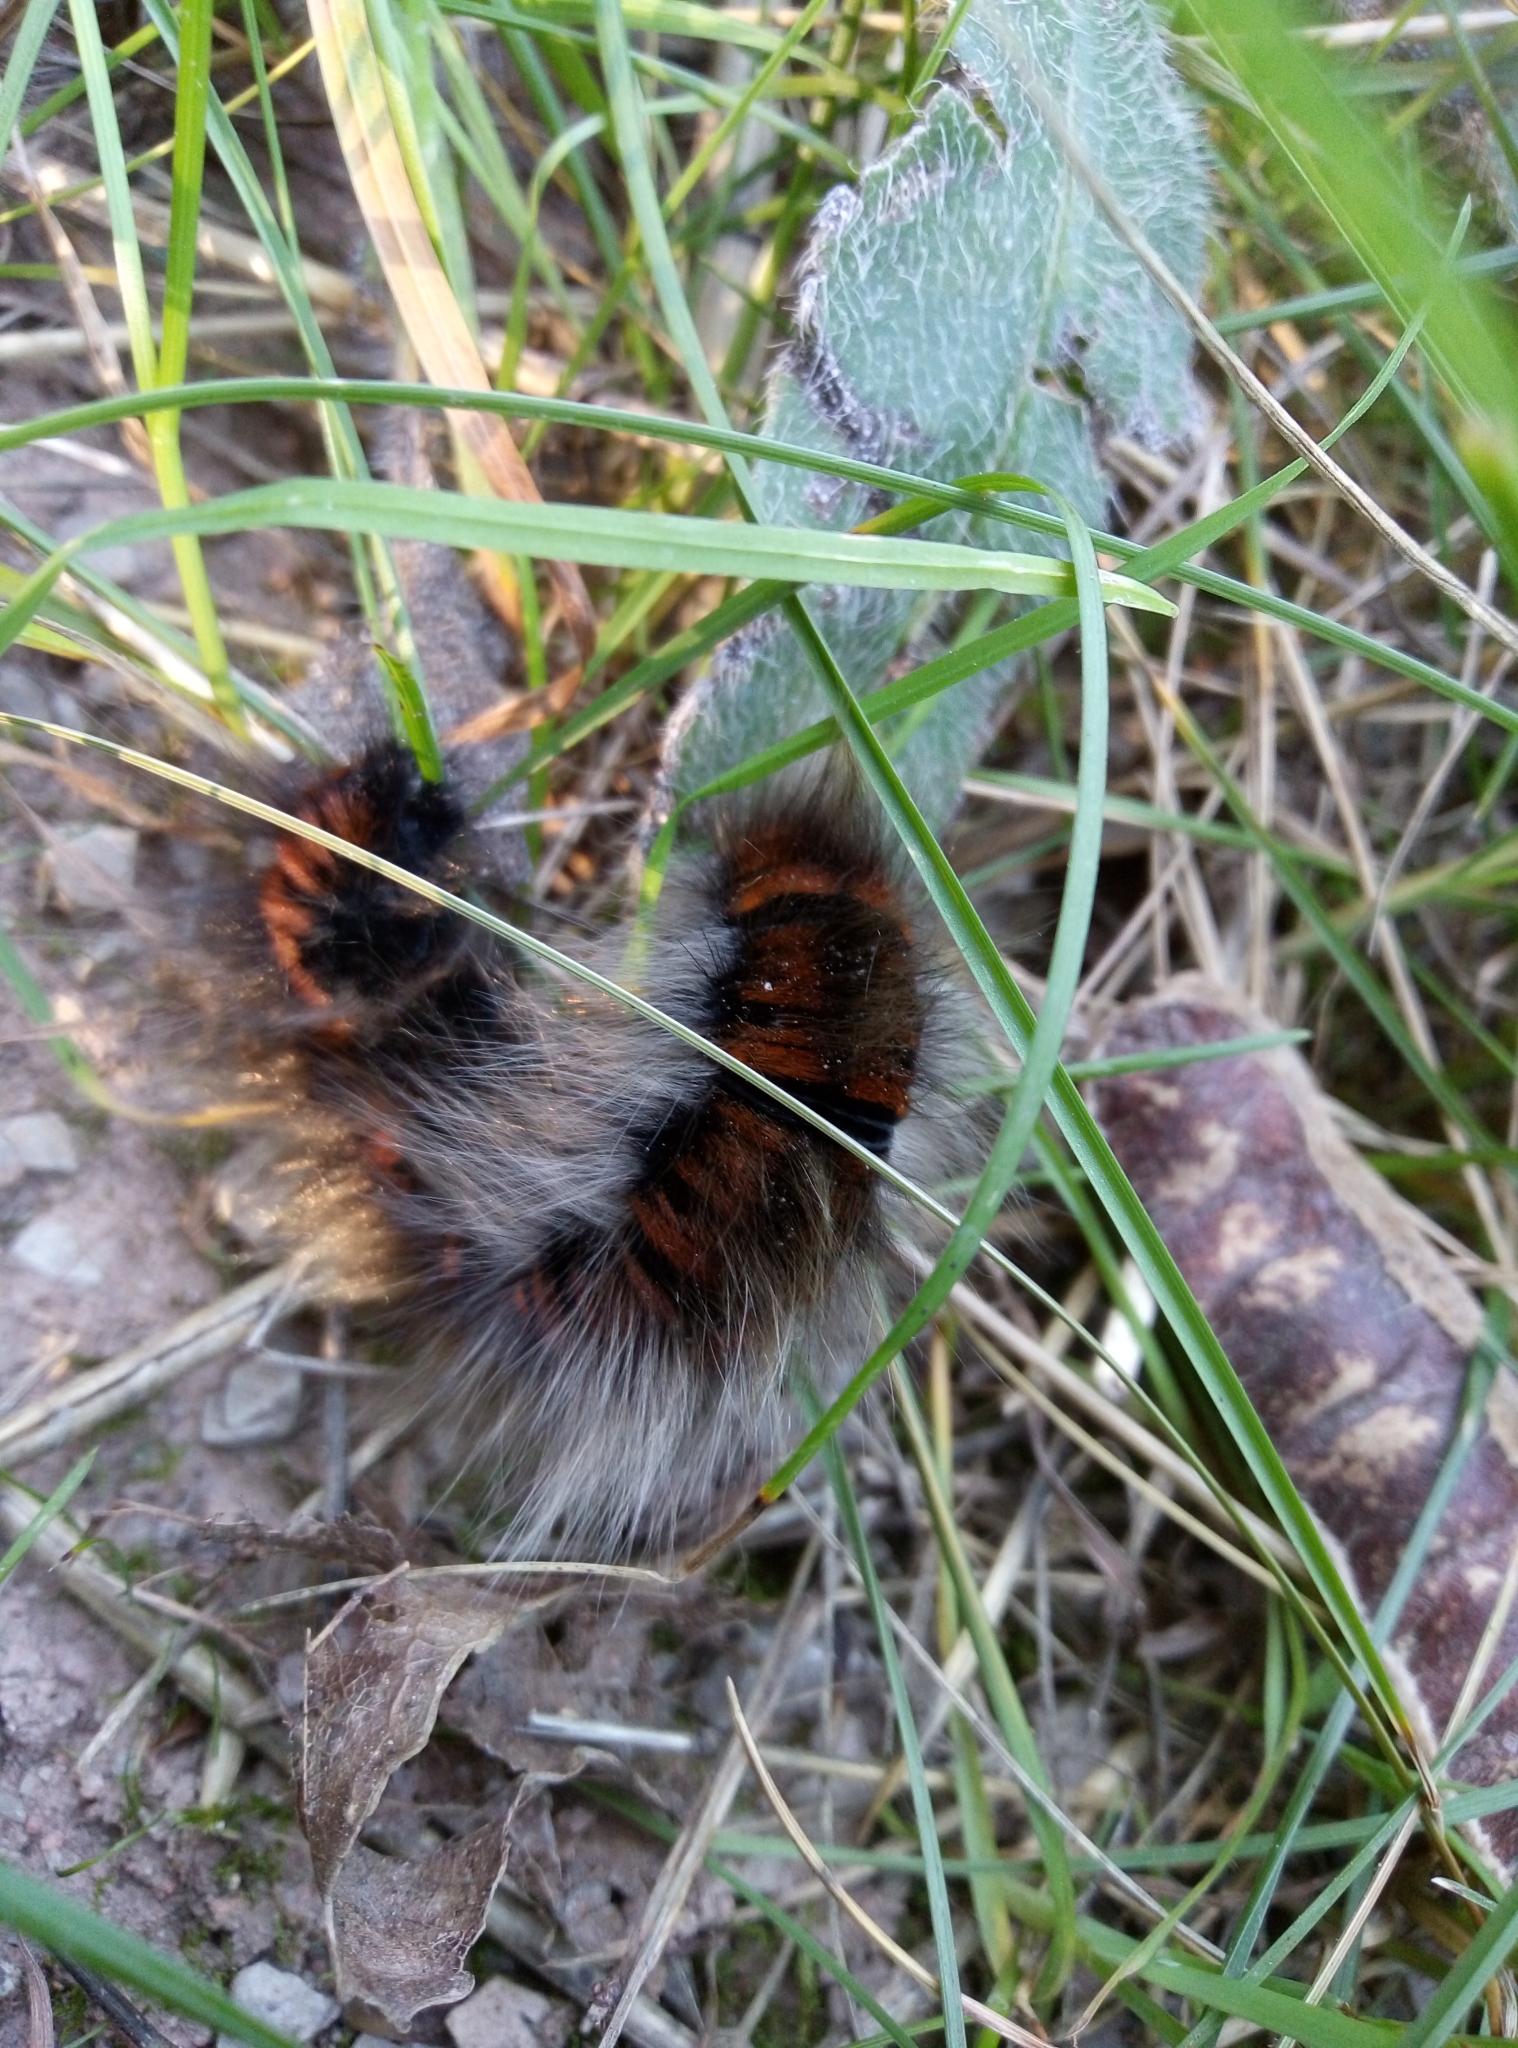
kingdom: Animalia
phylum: Arthropoda
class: Insecta
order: Lepidoptera
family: Lasiocampidae
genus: Macrothylacia
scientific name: Macrothylacia rubi
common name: Fox moth
